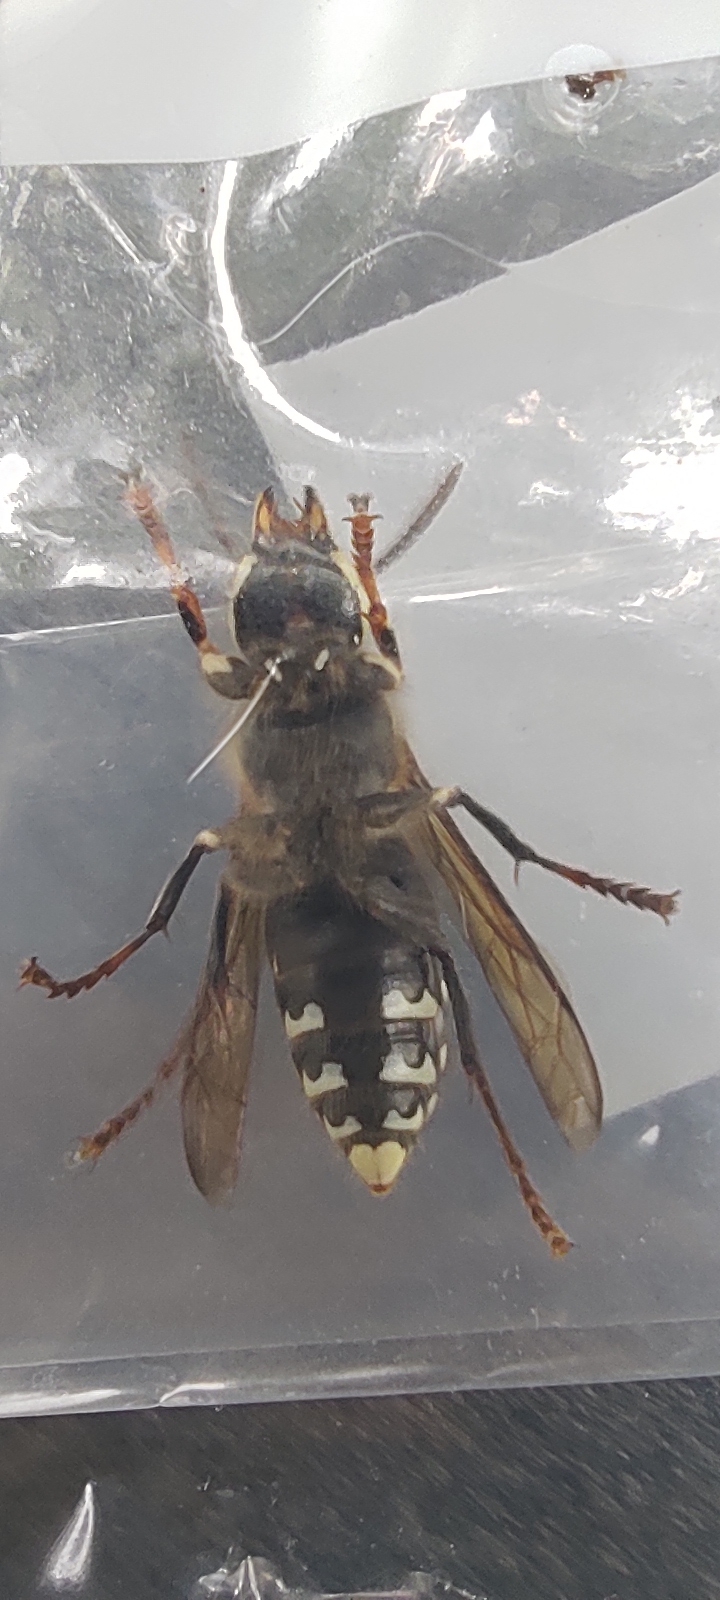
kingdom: Animalia
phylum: Arthropoda
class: Insecta
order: Hymenoptera
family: Vespidae
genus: Dolichovespula
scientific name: Dolichovespula maculata
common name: Bald-faced hornet
